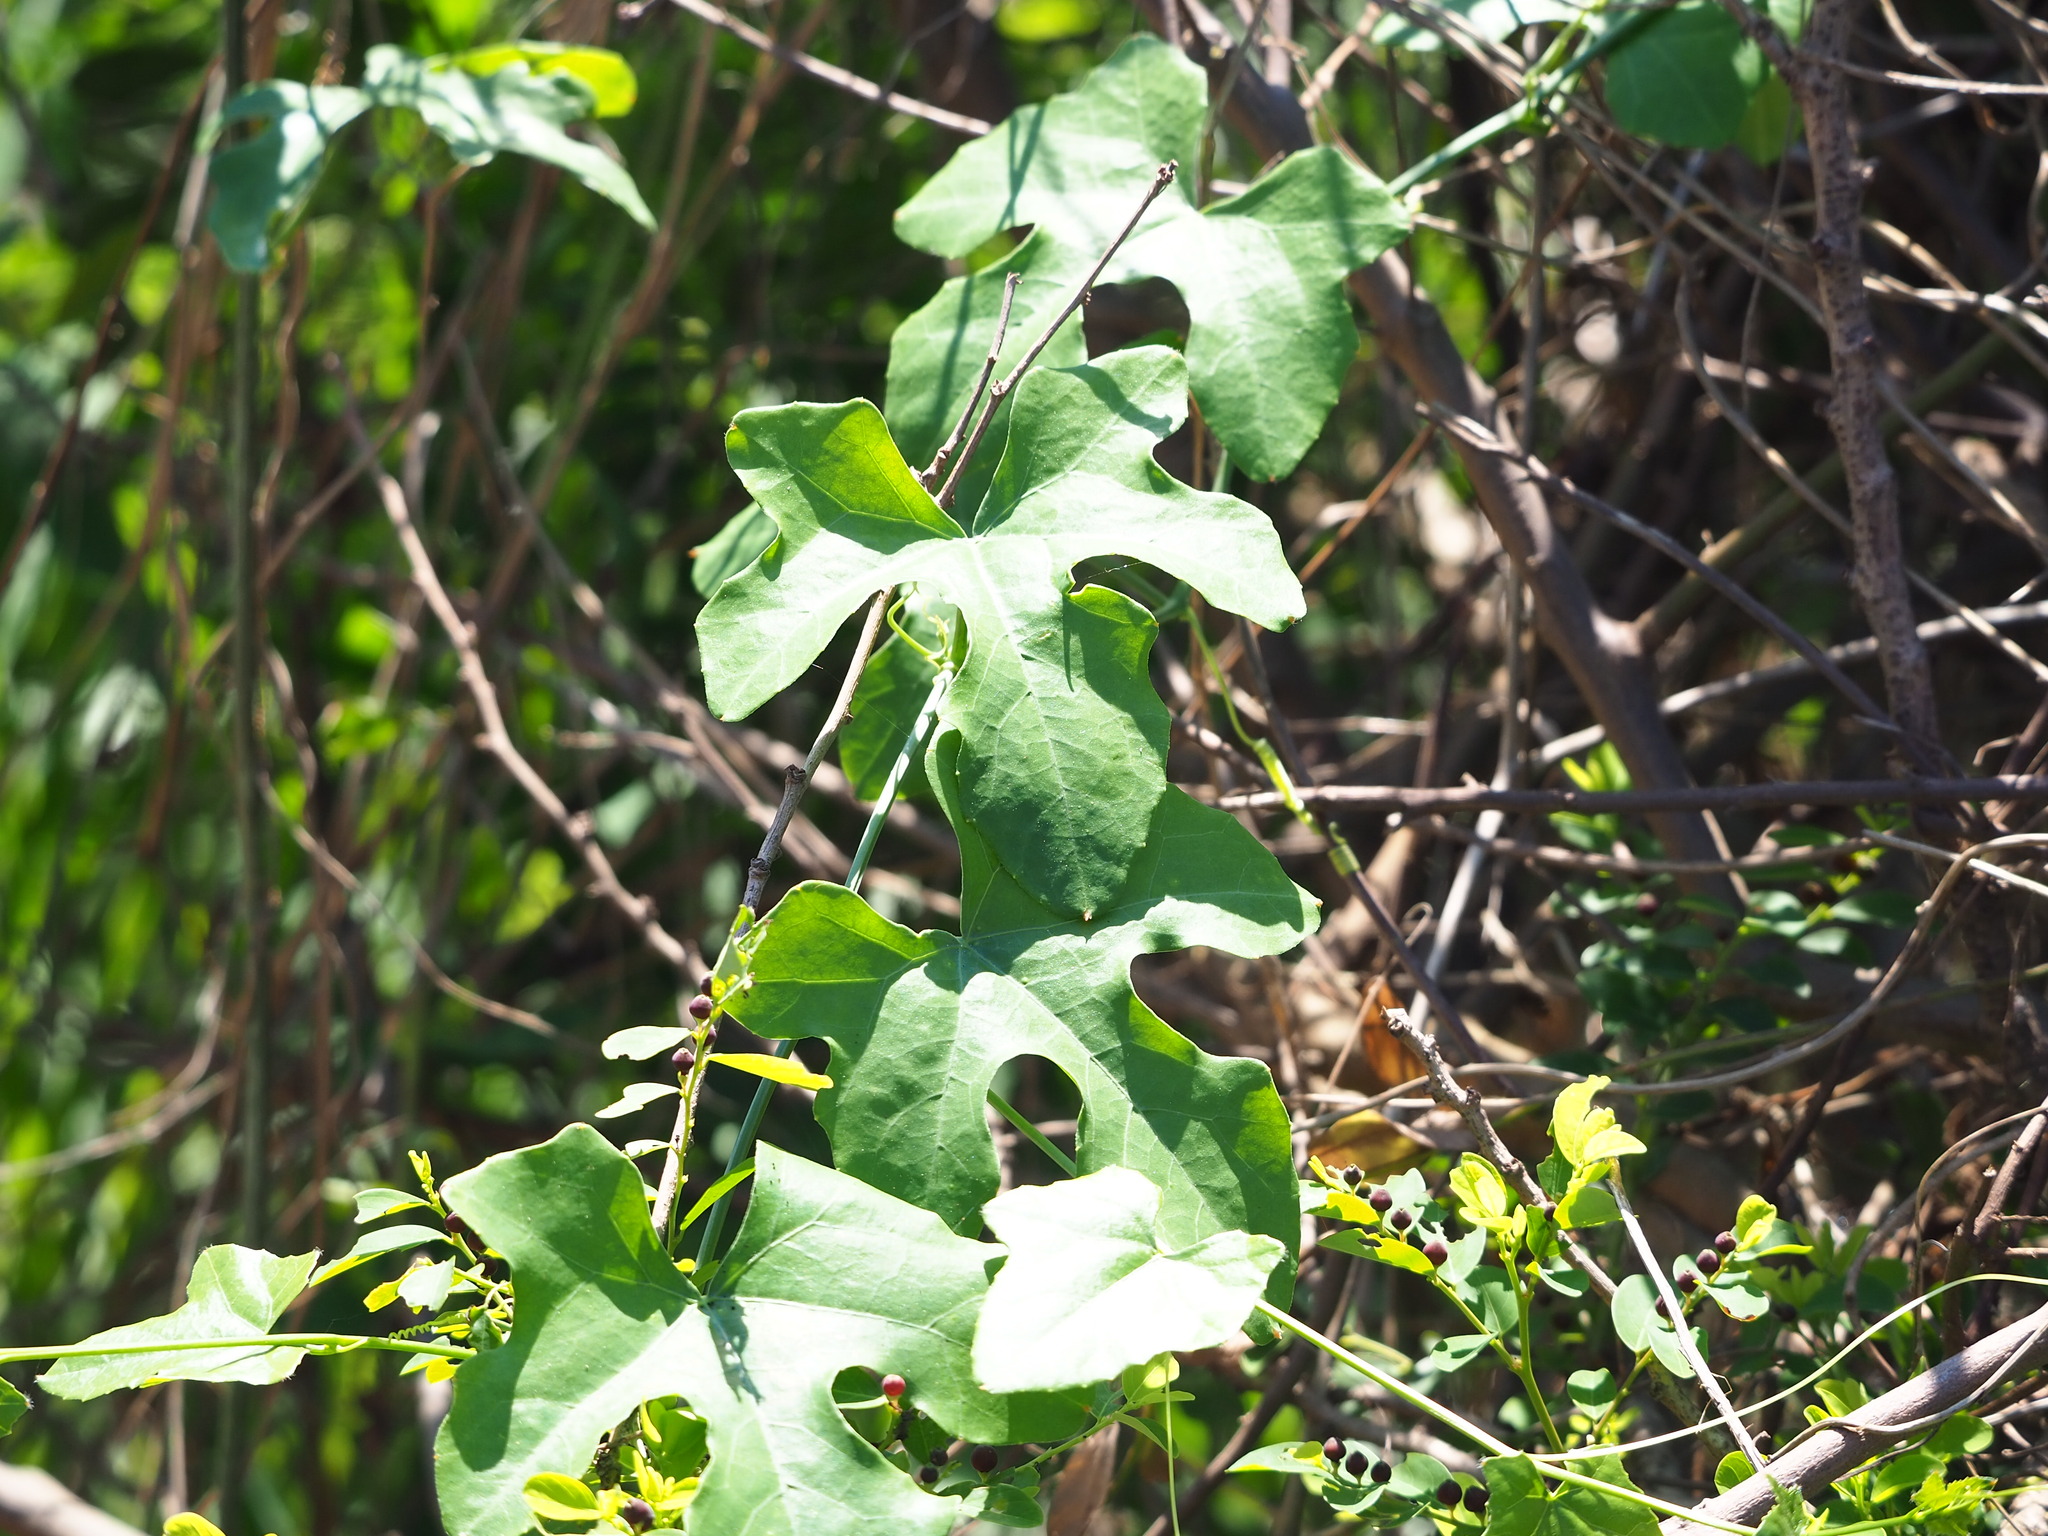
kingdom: Plantae
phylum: Tracheophyta
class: Magnoliopsida
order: Cucurbitales
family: Cucurbitaceae
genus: Coccinia
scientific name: Coccinia grandis
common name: Ivy gourd
